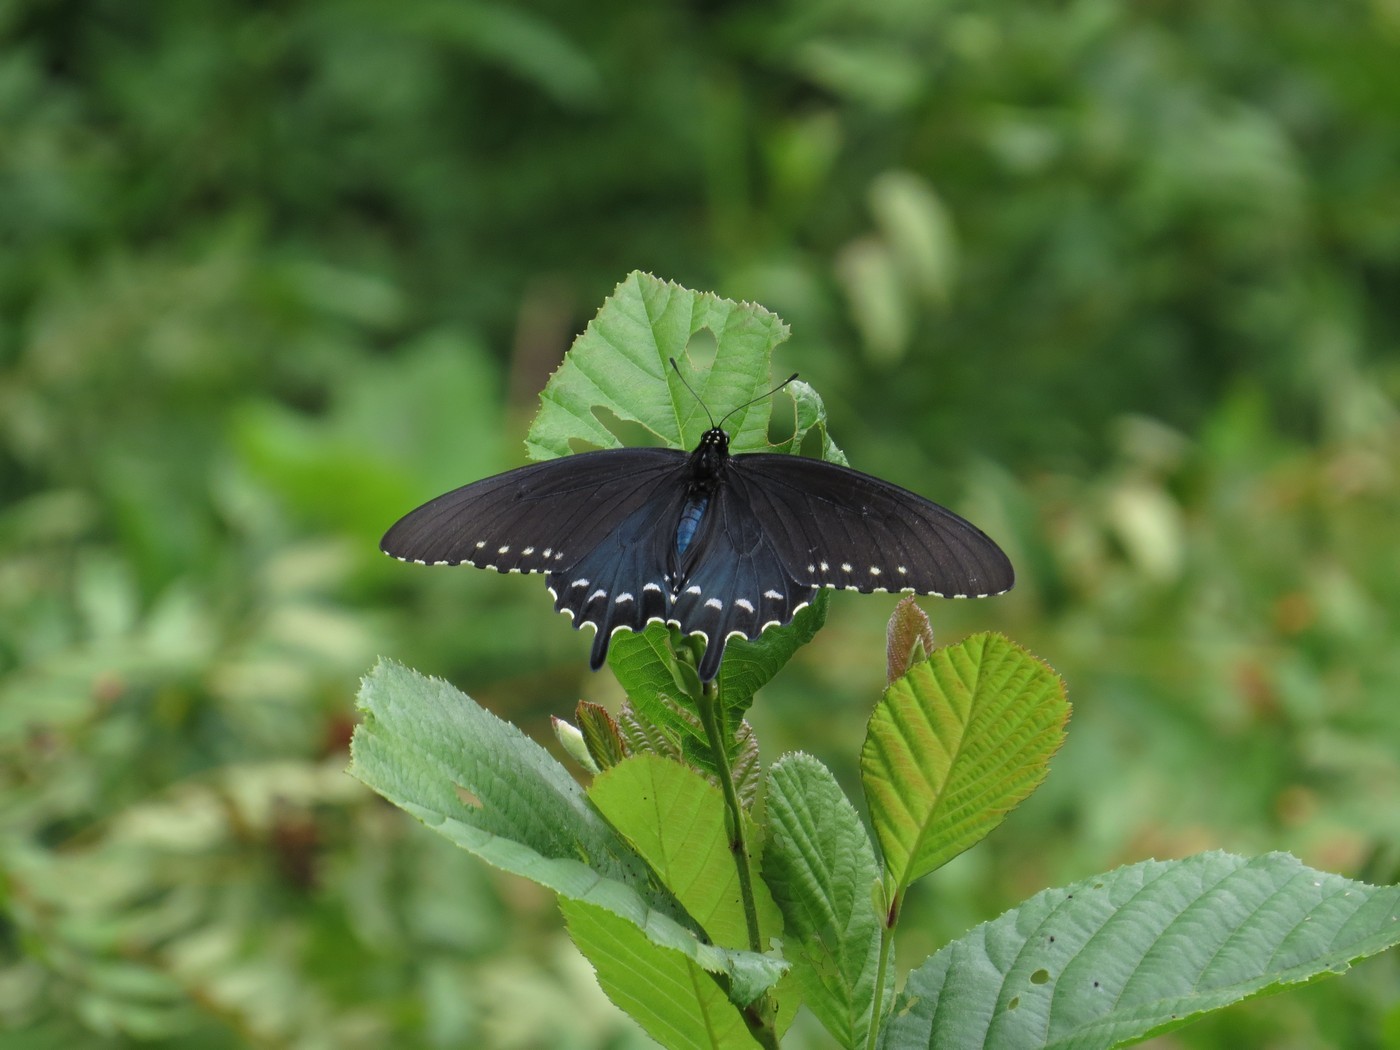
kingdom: Animalia
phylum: Arthropoda
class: Insecta
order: Lepidoptera
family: Papilionidae
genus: Battus
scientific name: Battus philenor
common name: Pipevine swallowtail
